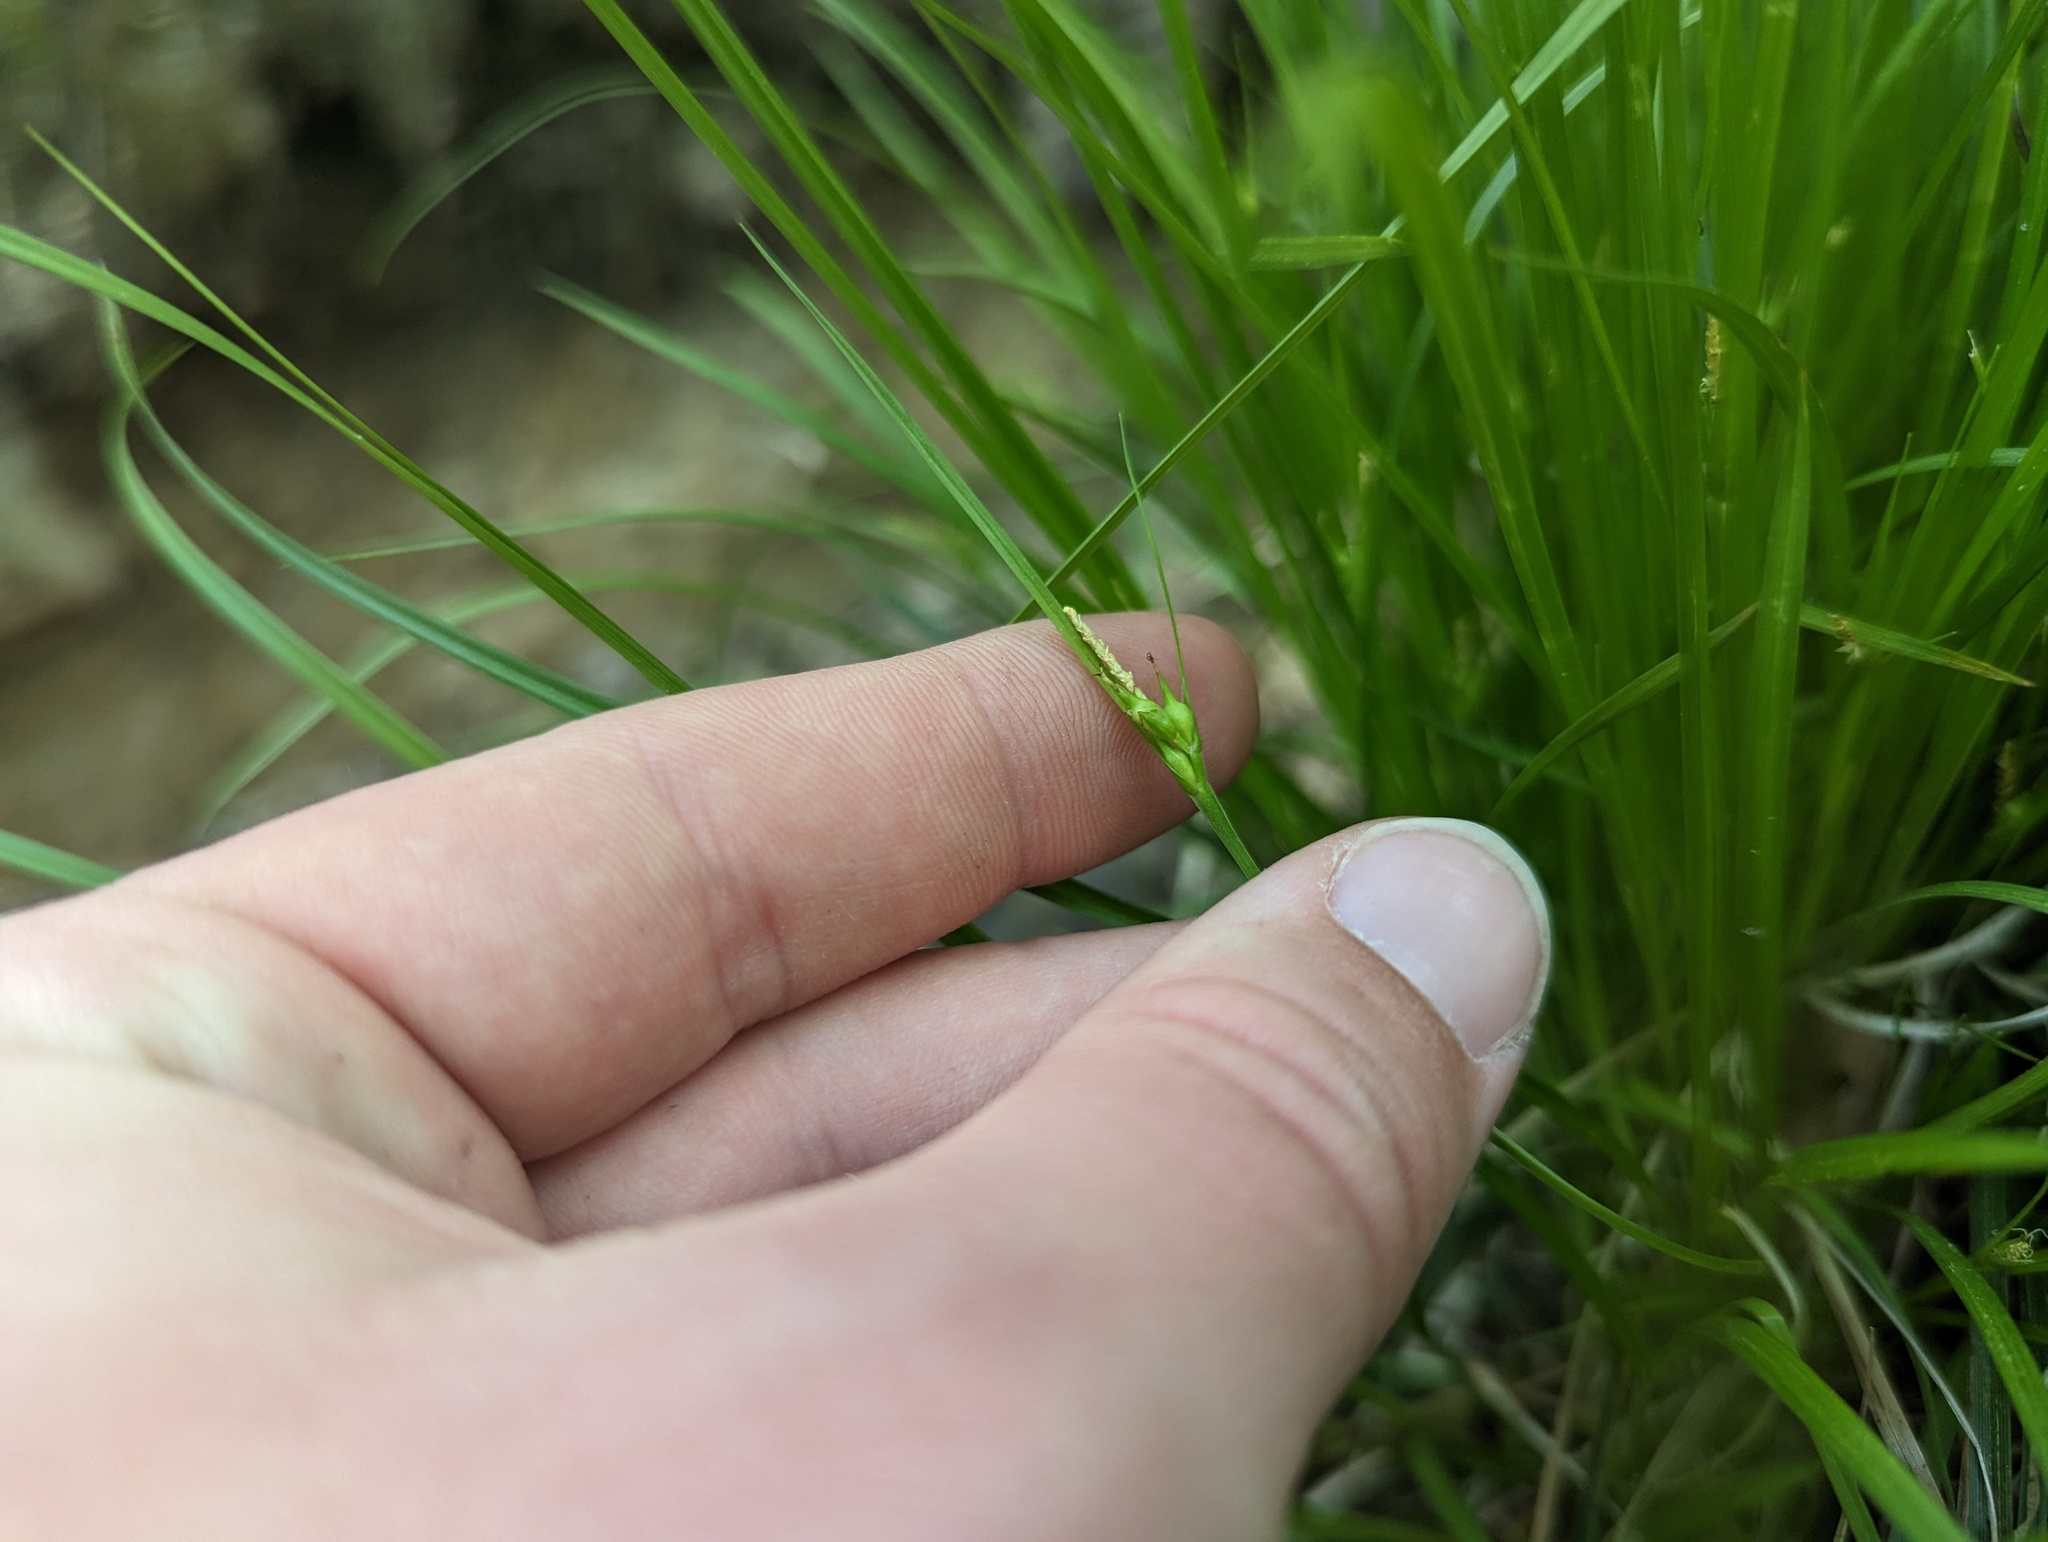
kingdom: Plantae
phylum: Tracheophyta
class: Liliopsida
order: Poales
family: Cyperaceae
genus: Carex
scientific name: Carex jamesii
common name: Grass sedge
